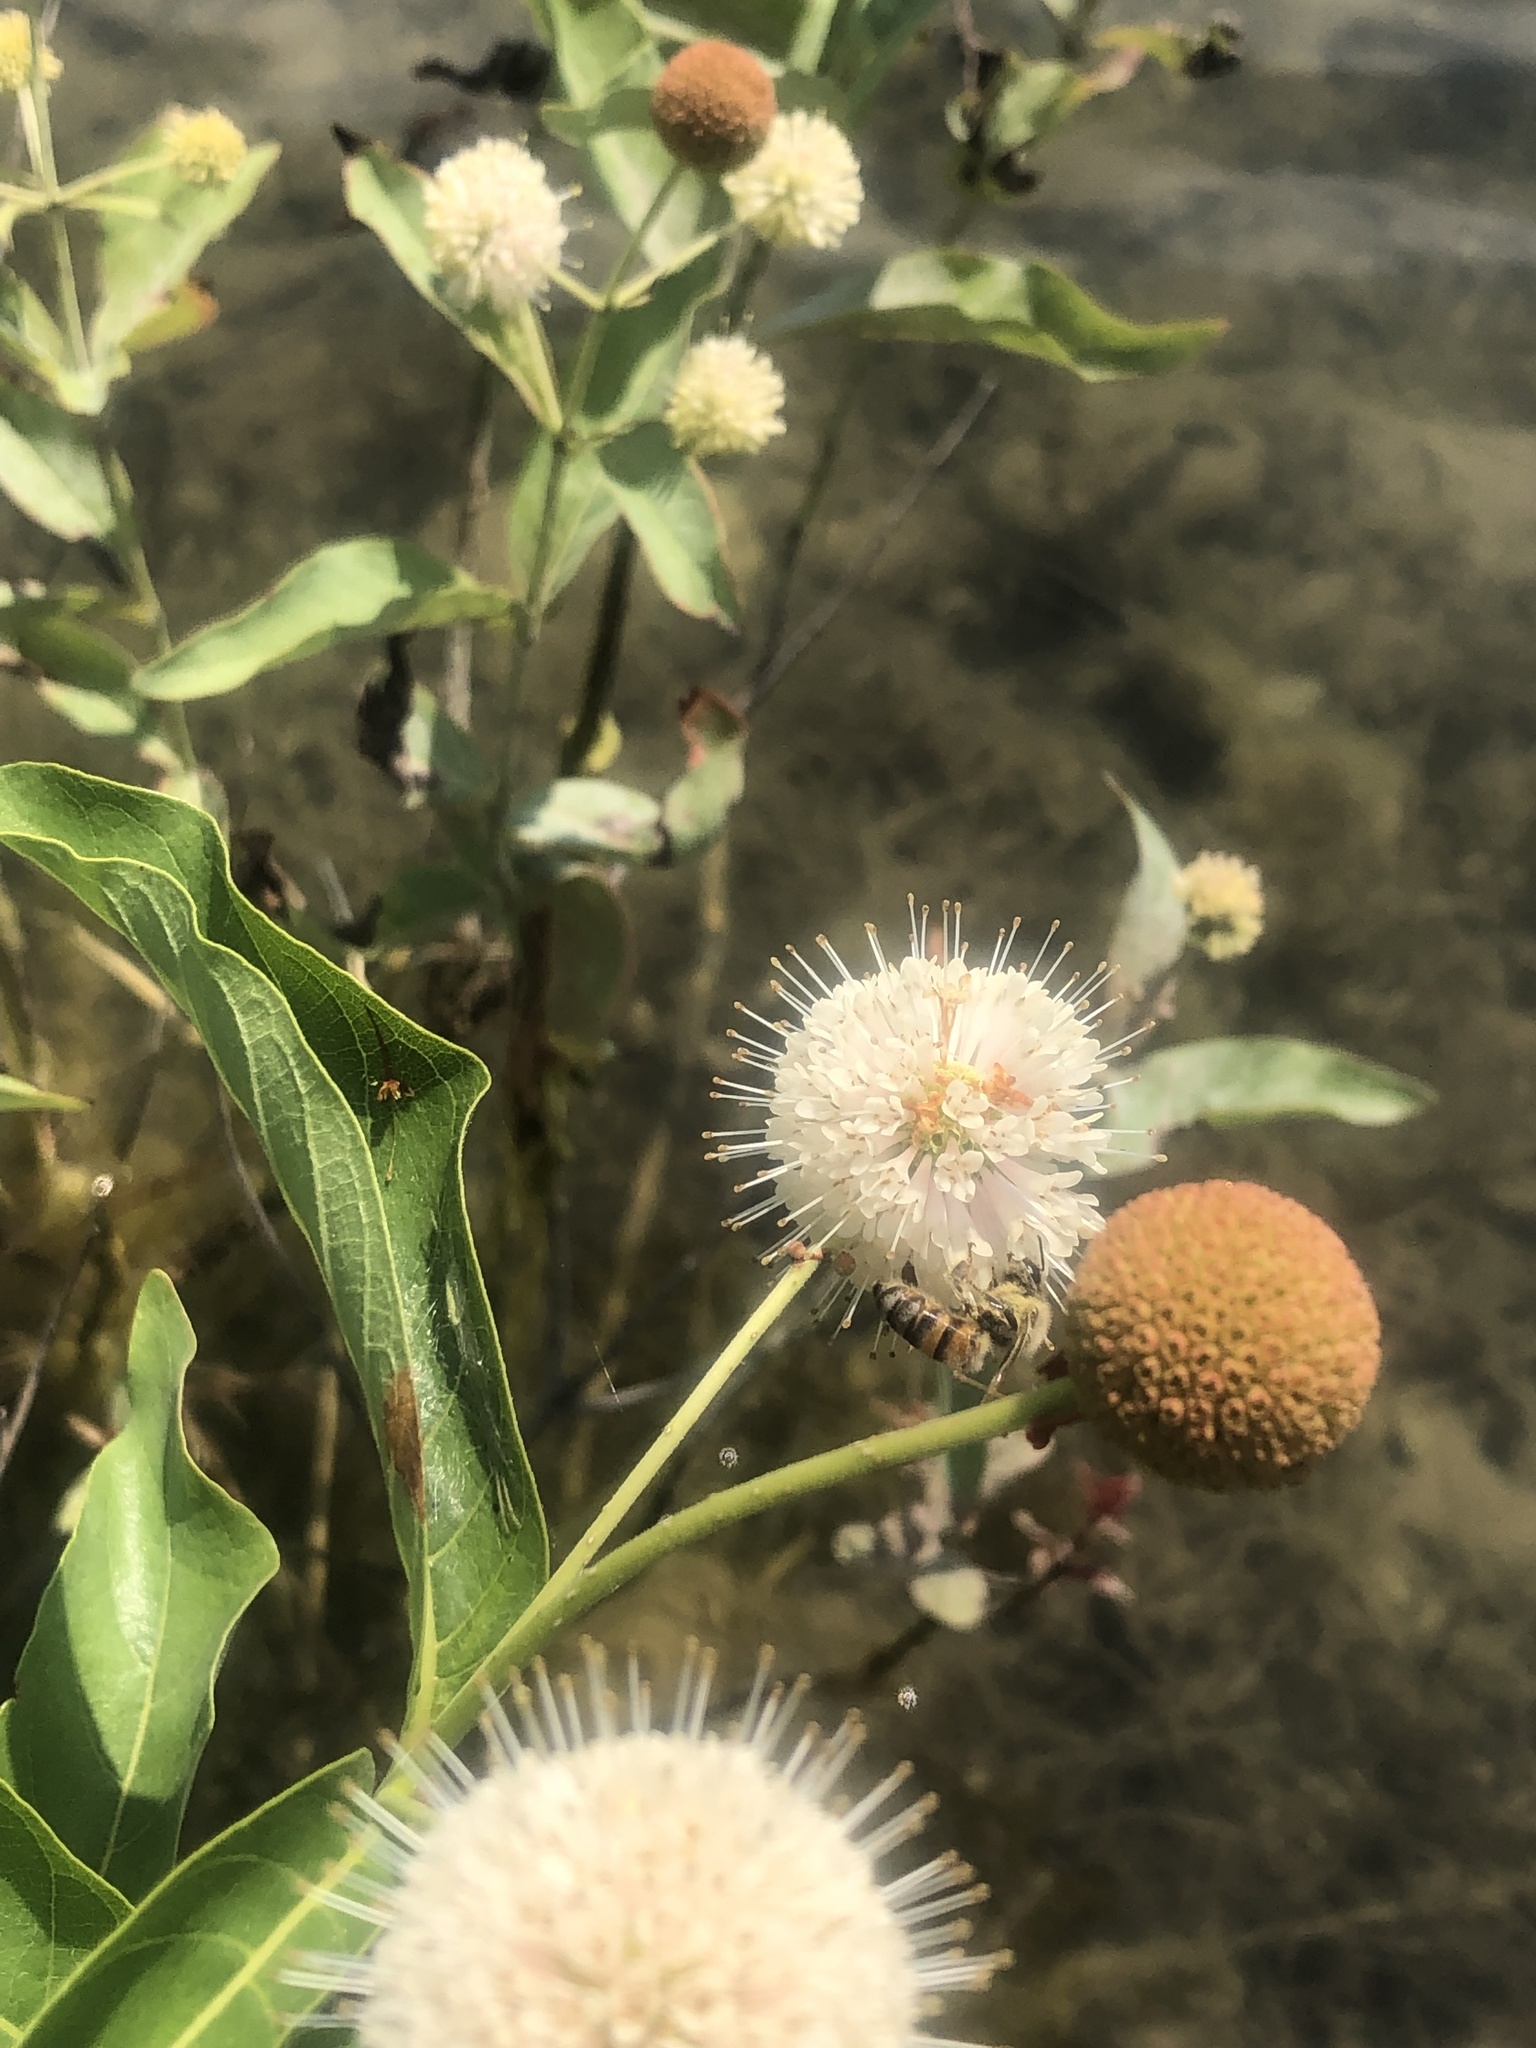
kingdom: Plantae
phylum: Tracheophyta
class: Magnoliopsida
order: Gentianales
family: Rubiaceae
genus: Cephalanthus
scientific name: Cephalanthus occidentalis
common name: Button-willow
